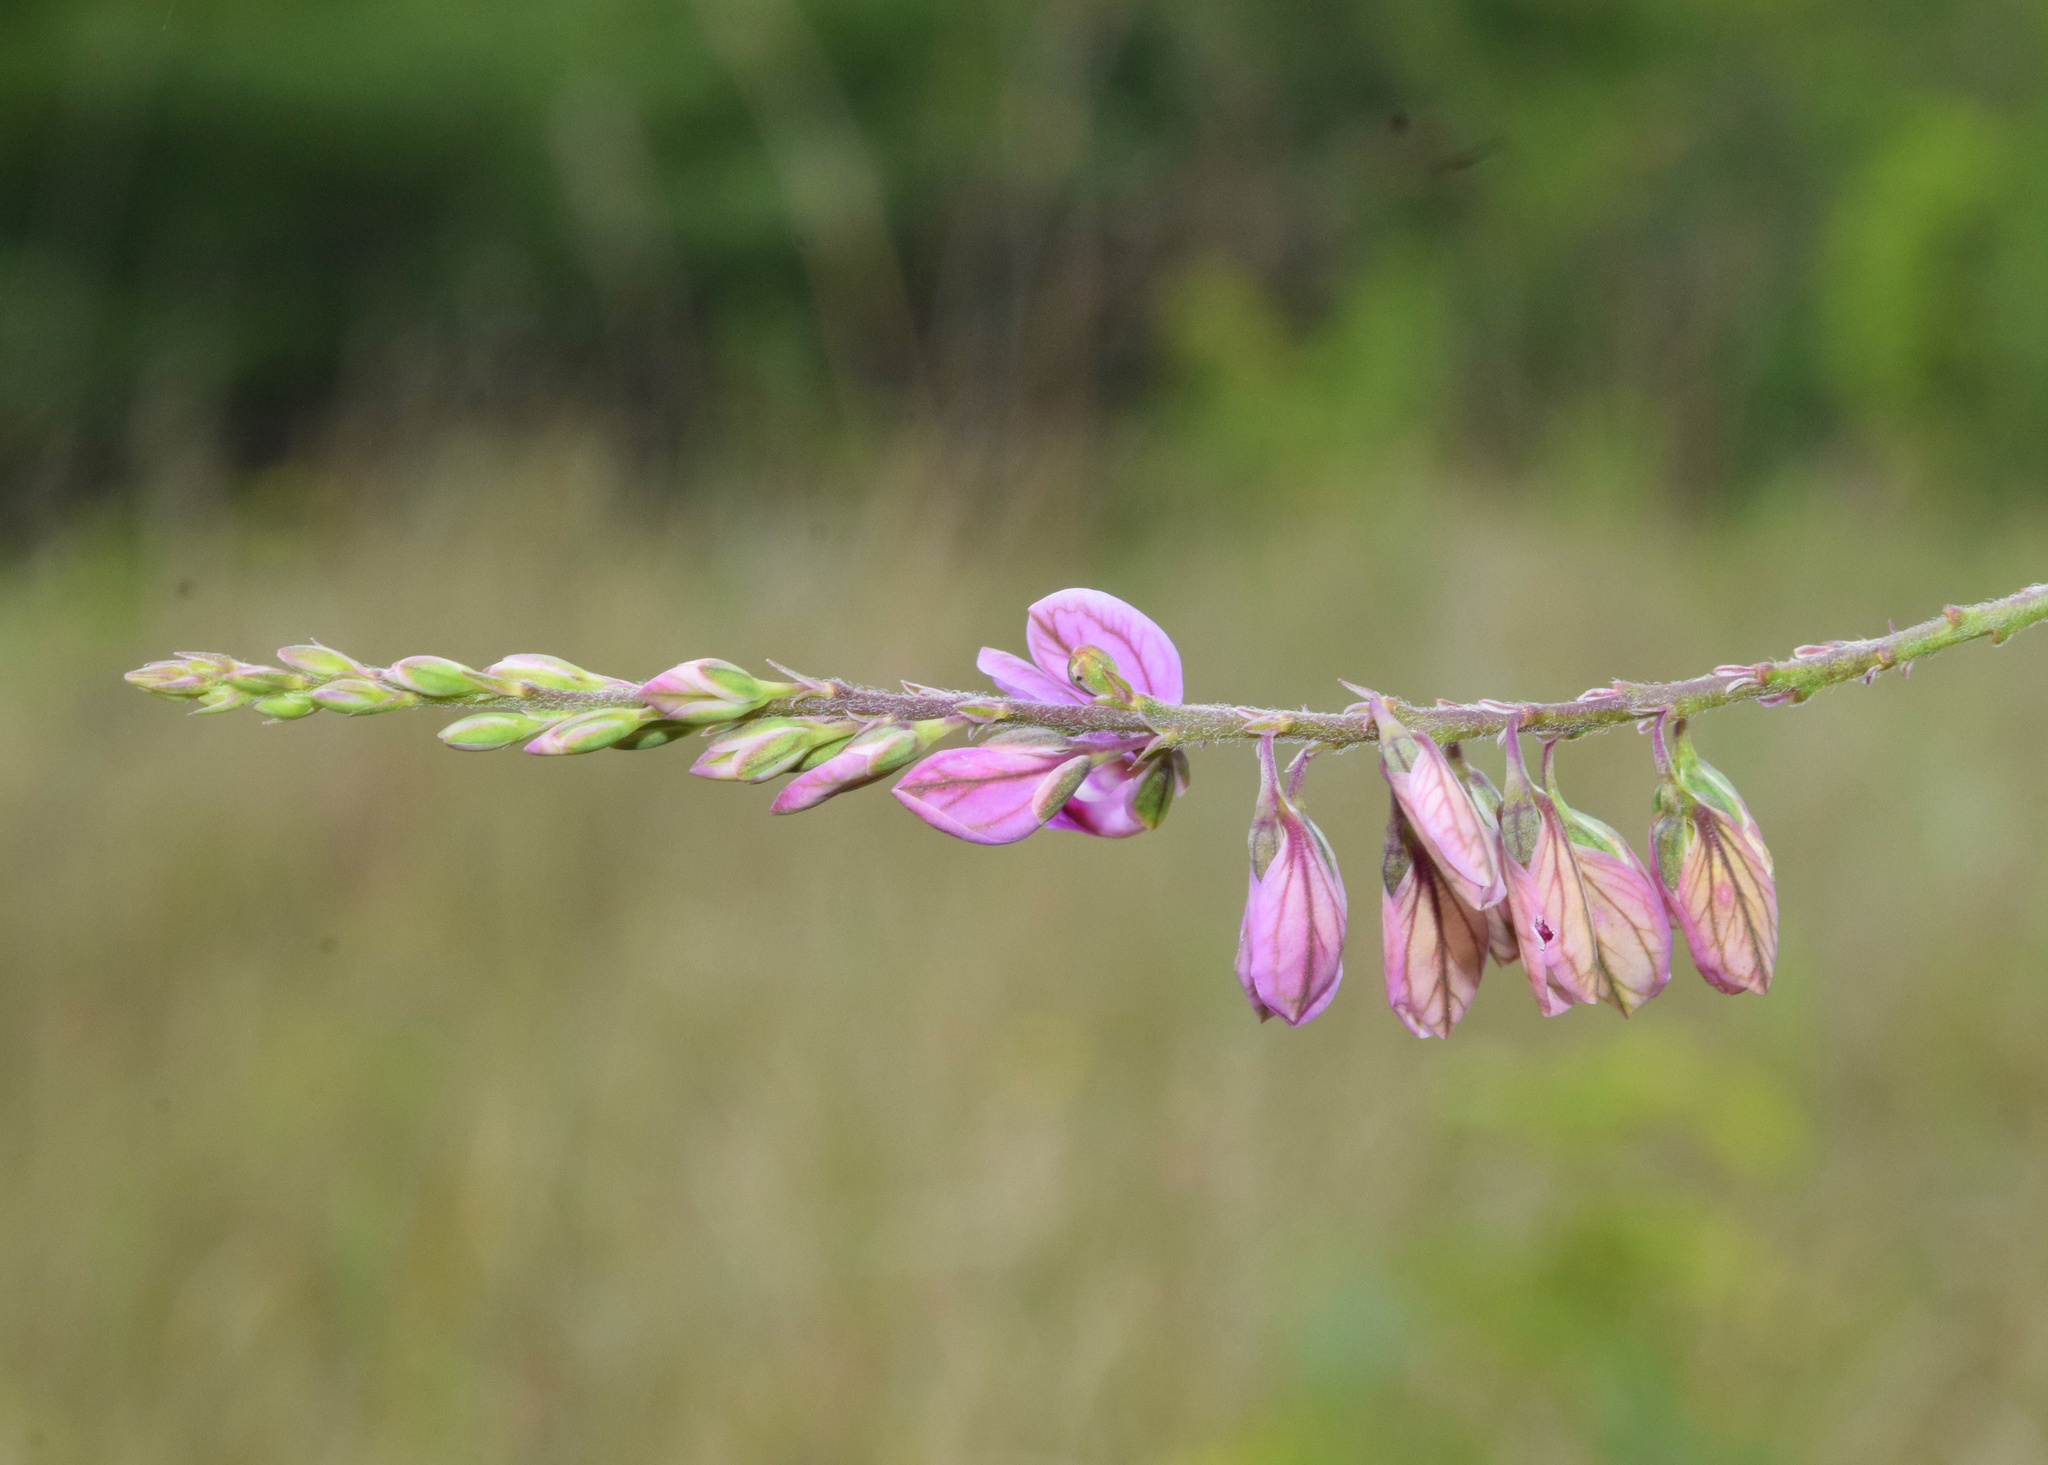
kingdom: Plantae
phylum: Tracheophyta
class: Magnoliopsida
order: Fabales
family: Polygalaceae
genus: Polygala
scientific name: Polygala hottentotta
